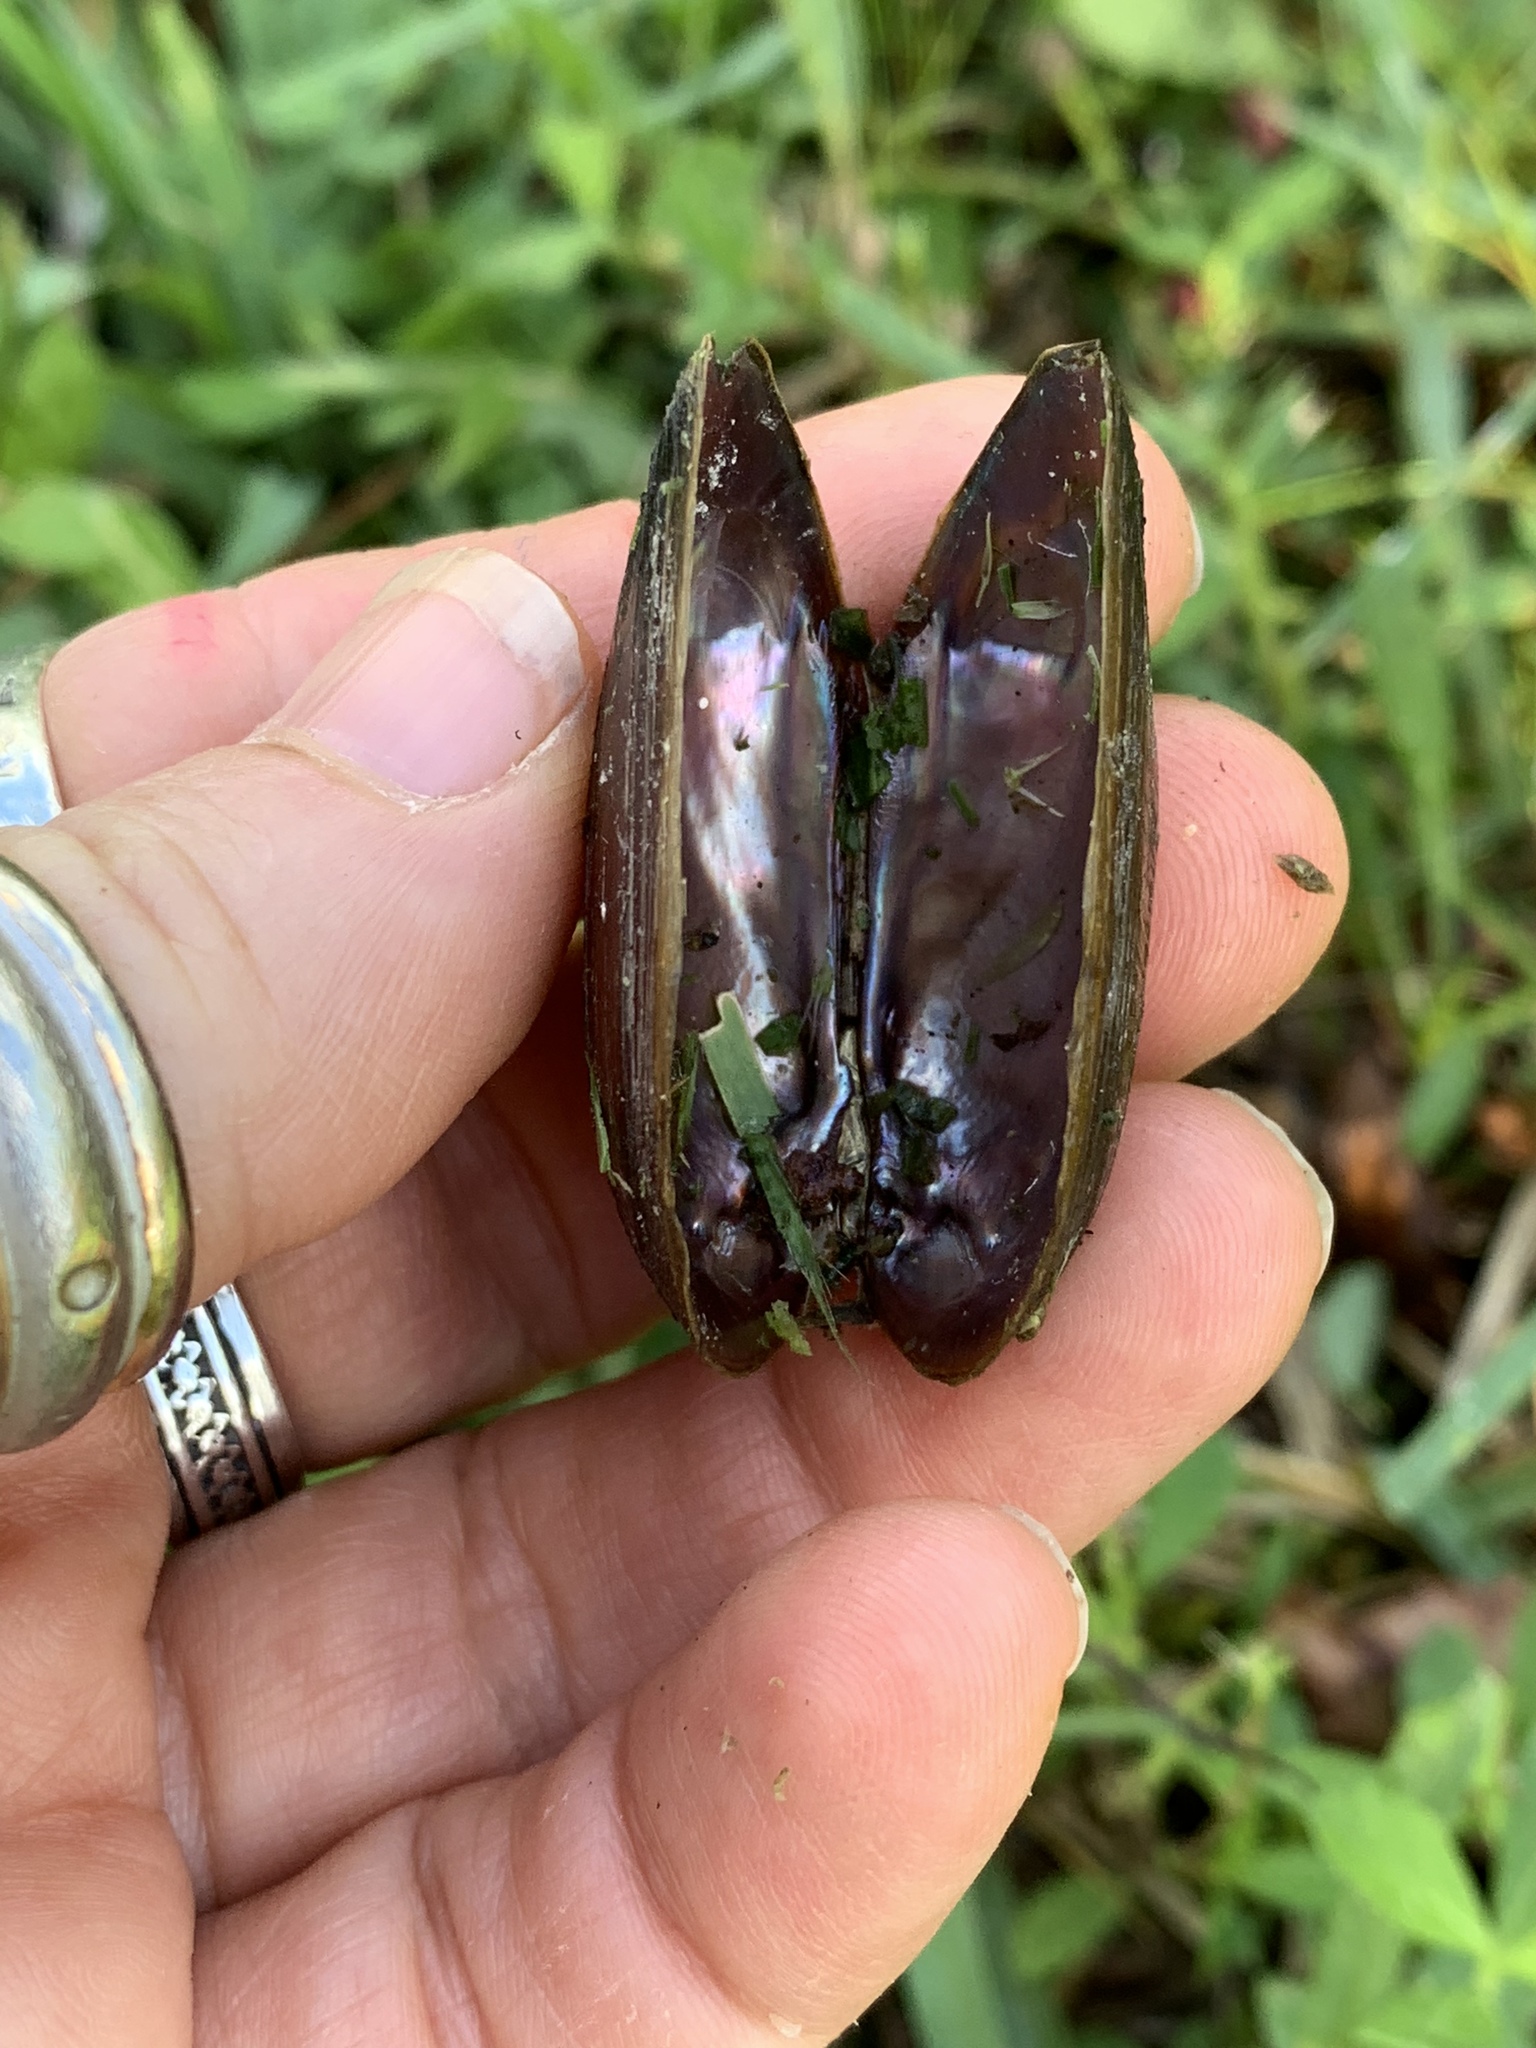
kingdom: Animalia
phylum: Mollusca
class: Bivalvia
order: Unionida
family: Unionidae
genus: Elliptio
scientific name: Elliptio jayensis
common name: Florida spike
